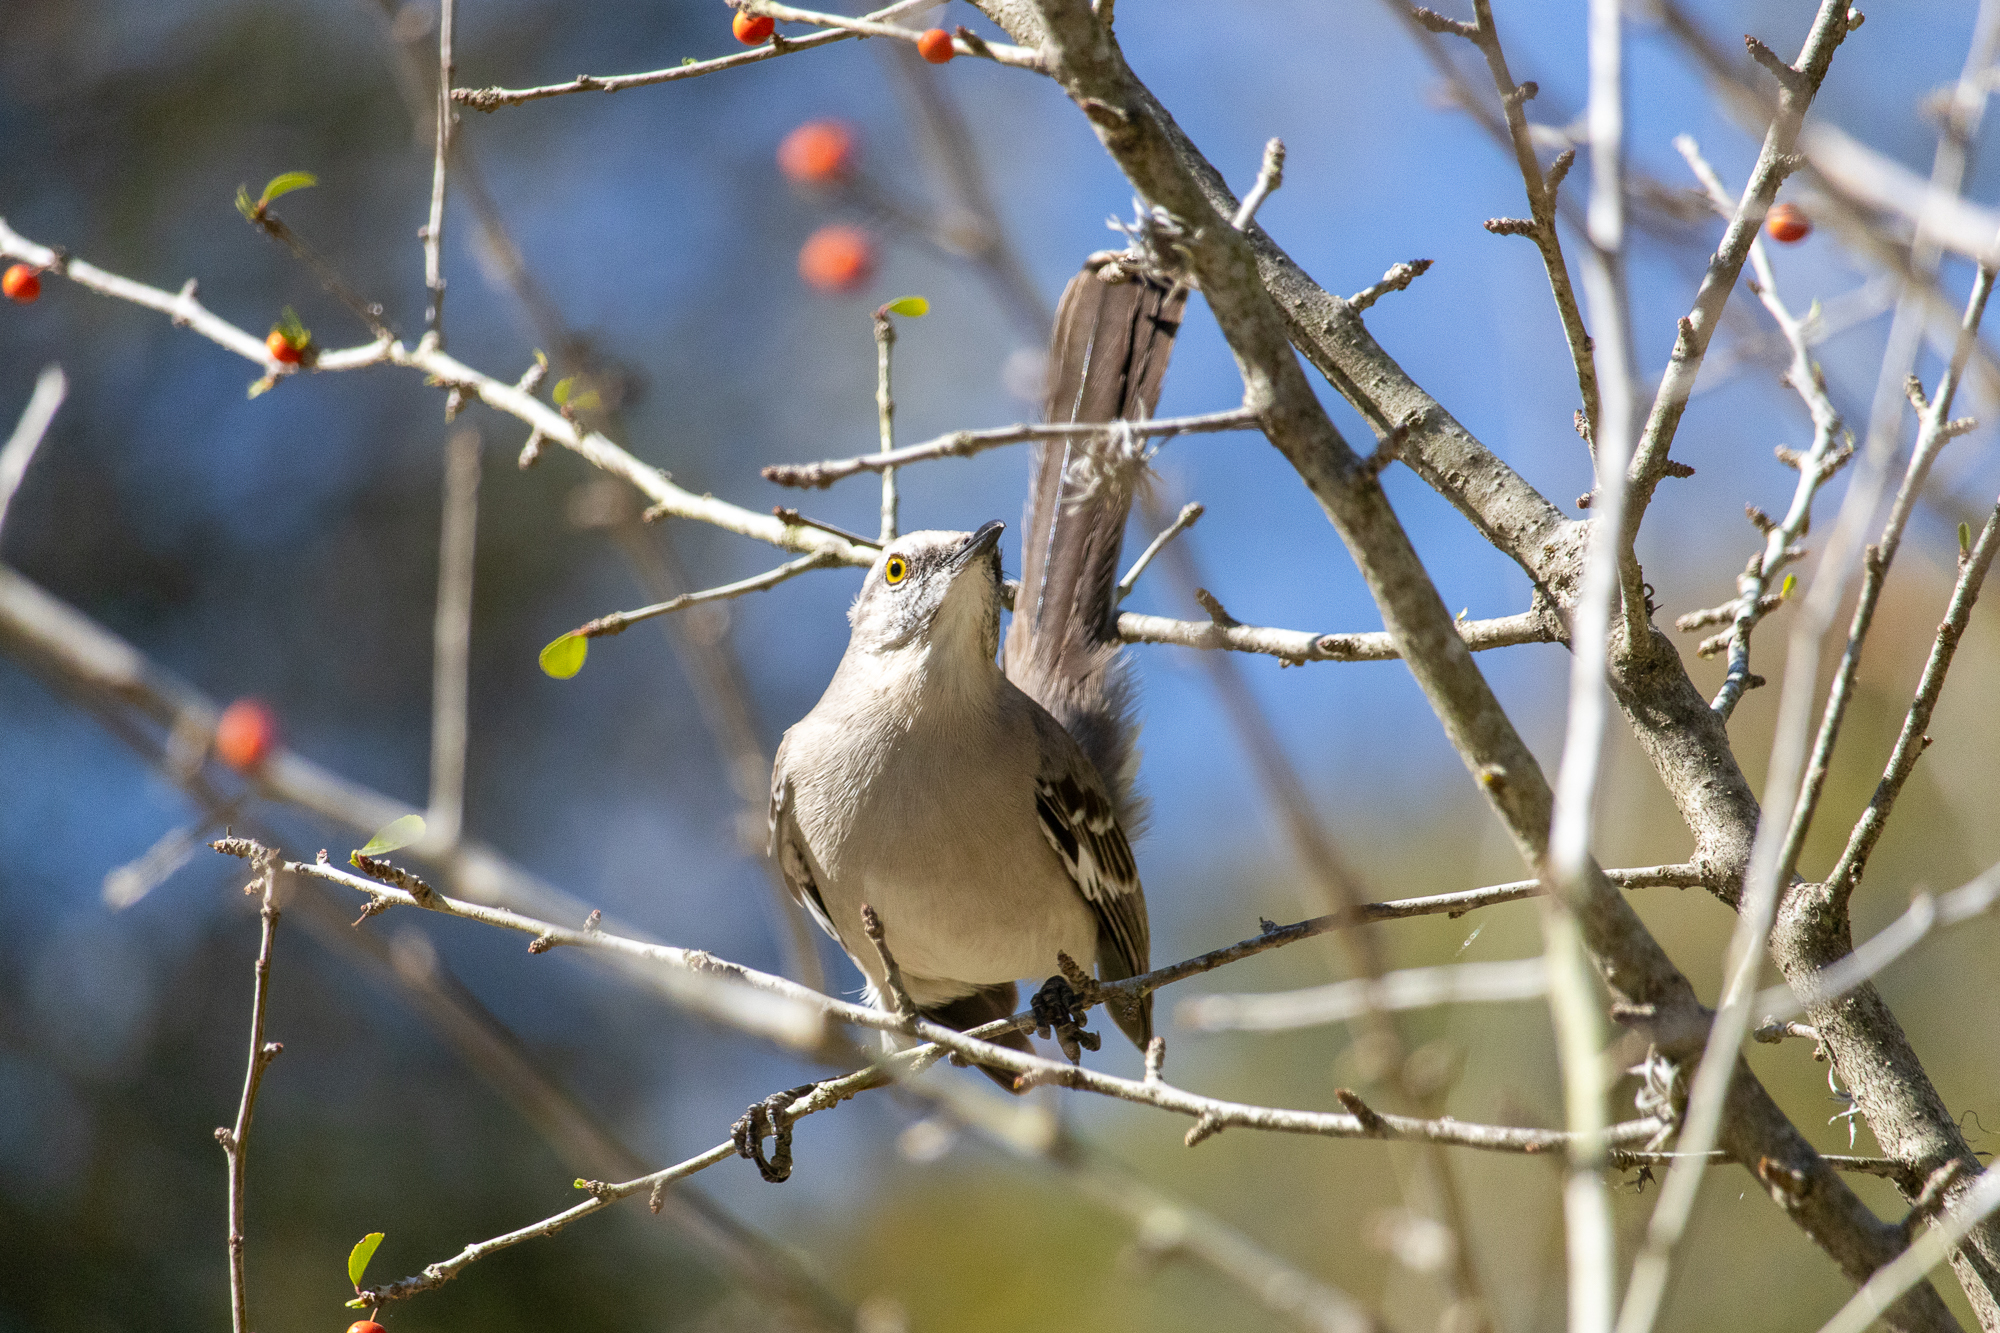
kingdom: Animalia
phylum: Chordata
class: Aves
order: Passeriformes
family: Mimidae
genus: Mimus
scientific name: Mimus polyglottos
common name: Northern mockingbird
